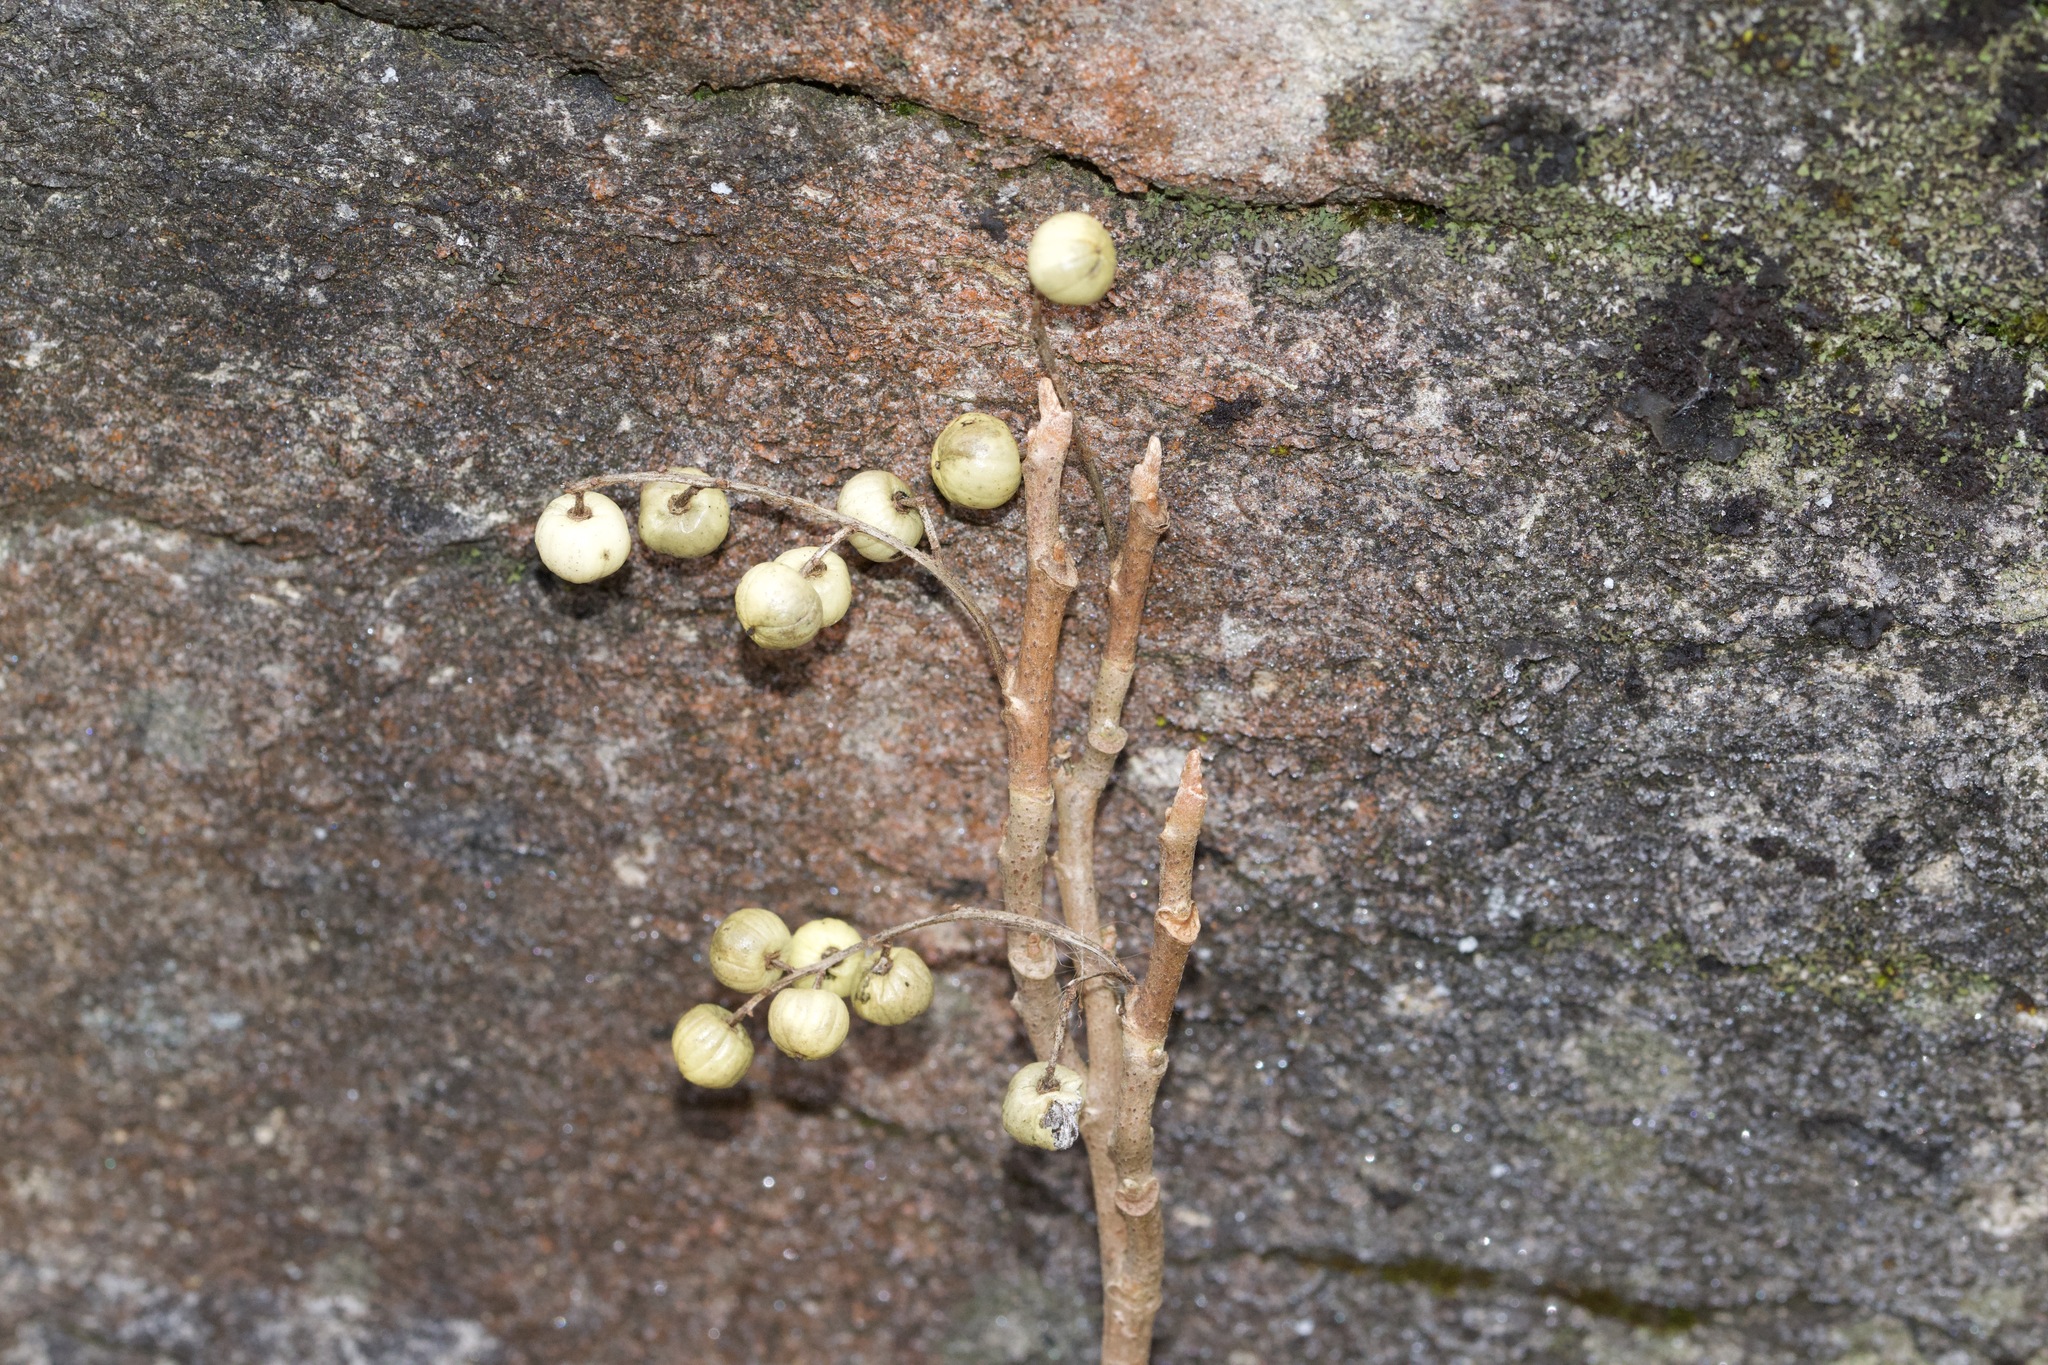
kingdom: Plantae
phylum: Tracheophyta
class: Magnoliopsida
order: Sapindales
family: Anacardiaceae
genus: Toxicodendron
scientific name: Toxicodendron radicans
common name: Poison ivy
